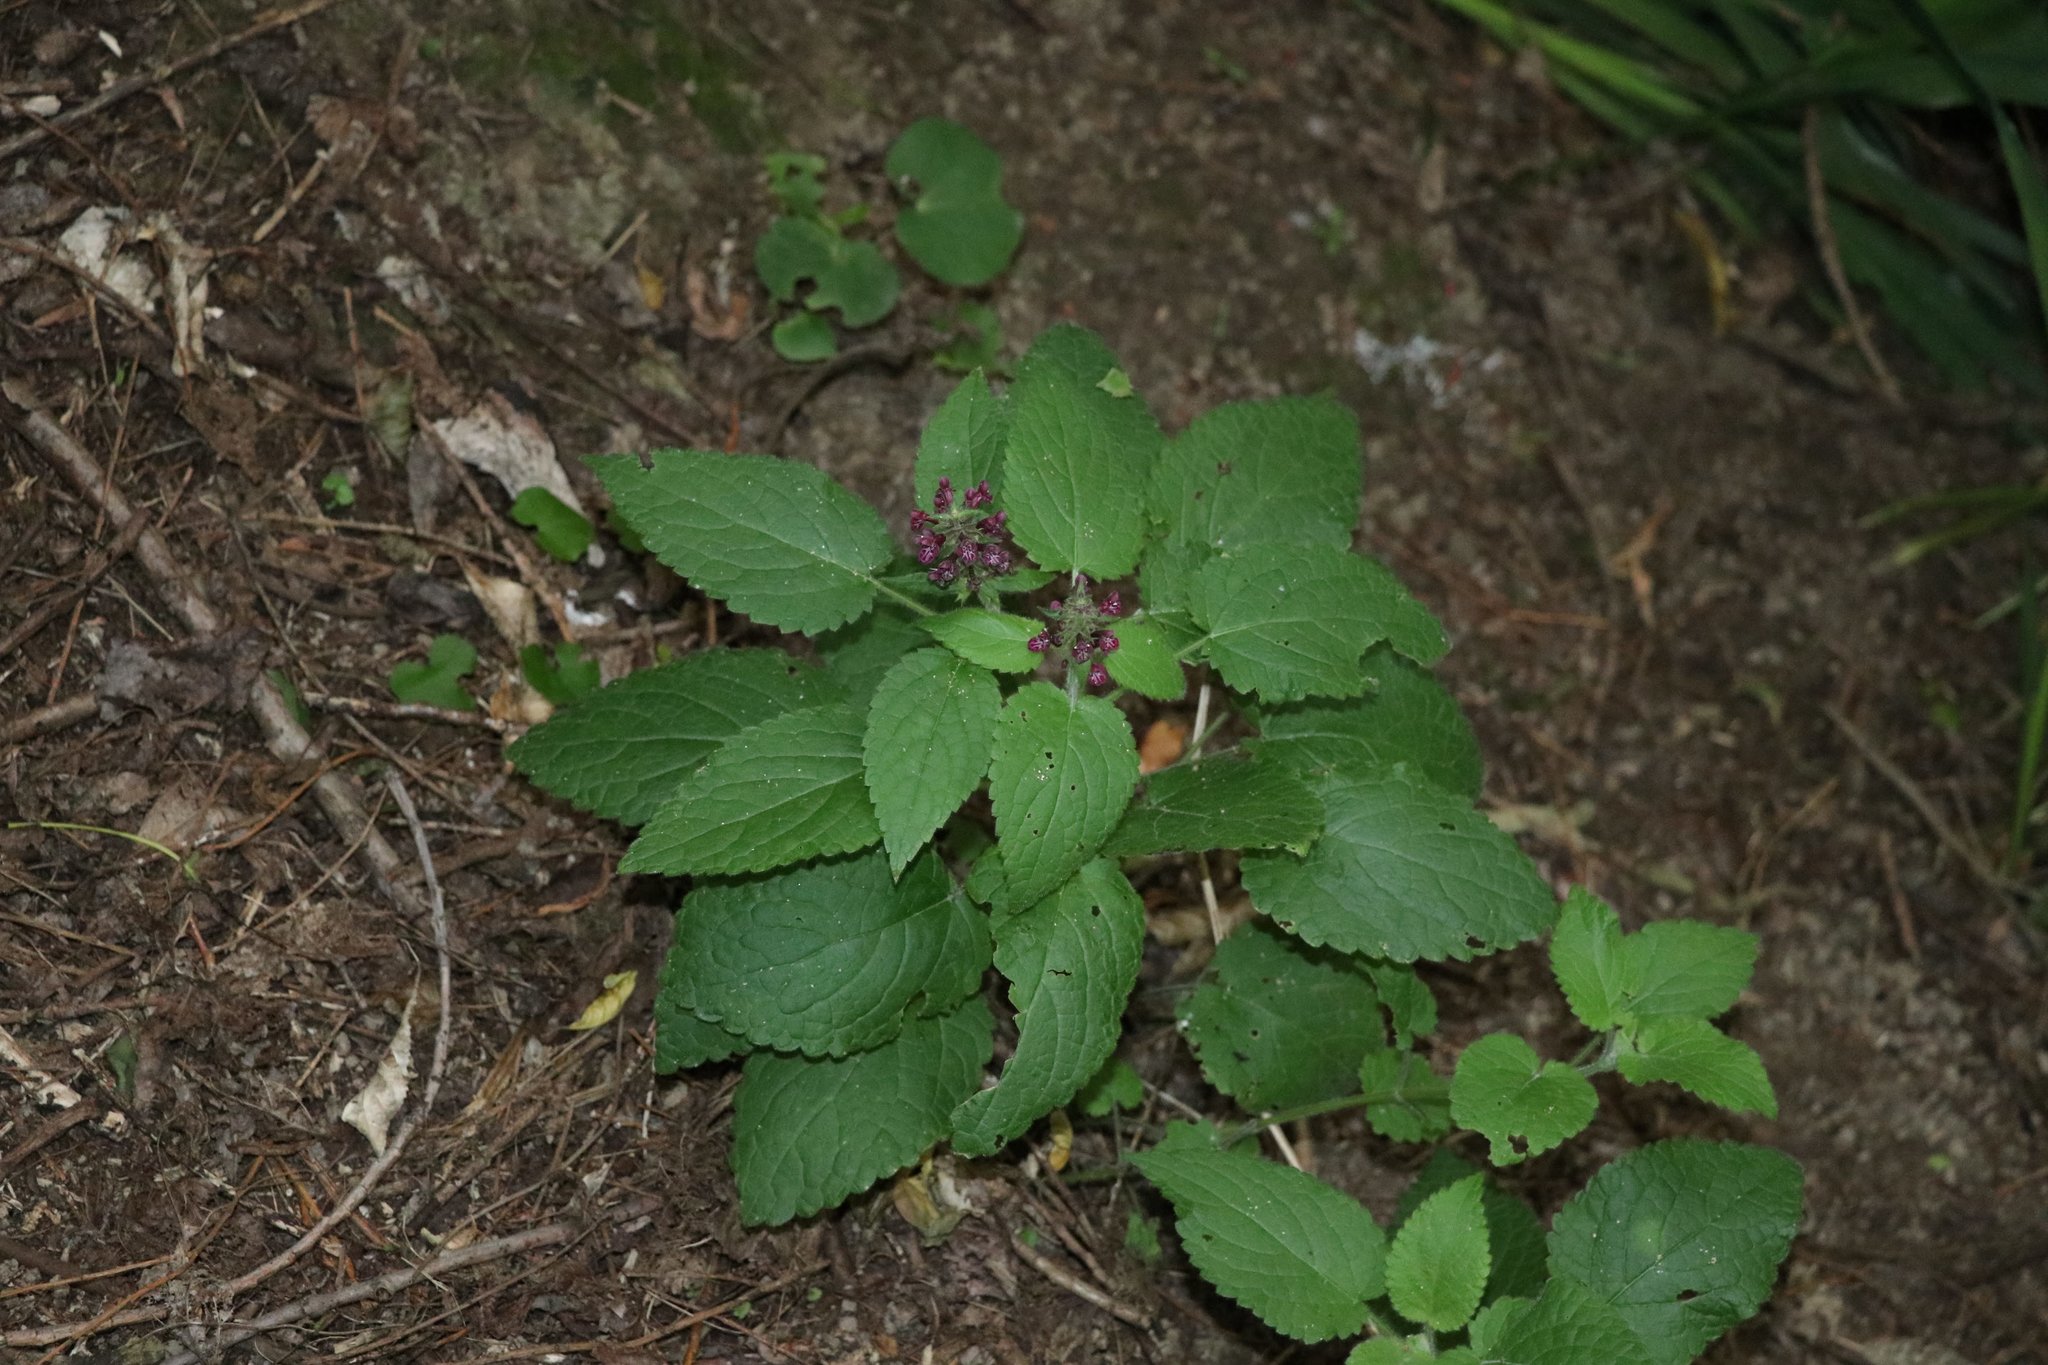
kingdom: Plantae
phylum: Tracheophyta
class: Magnoliopsida
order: Lamiales
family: Lamiaceae
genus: Stachys
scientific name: Stachys sylvatica
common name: Hedge woundwort
